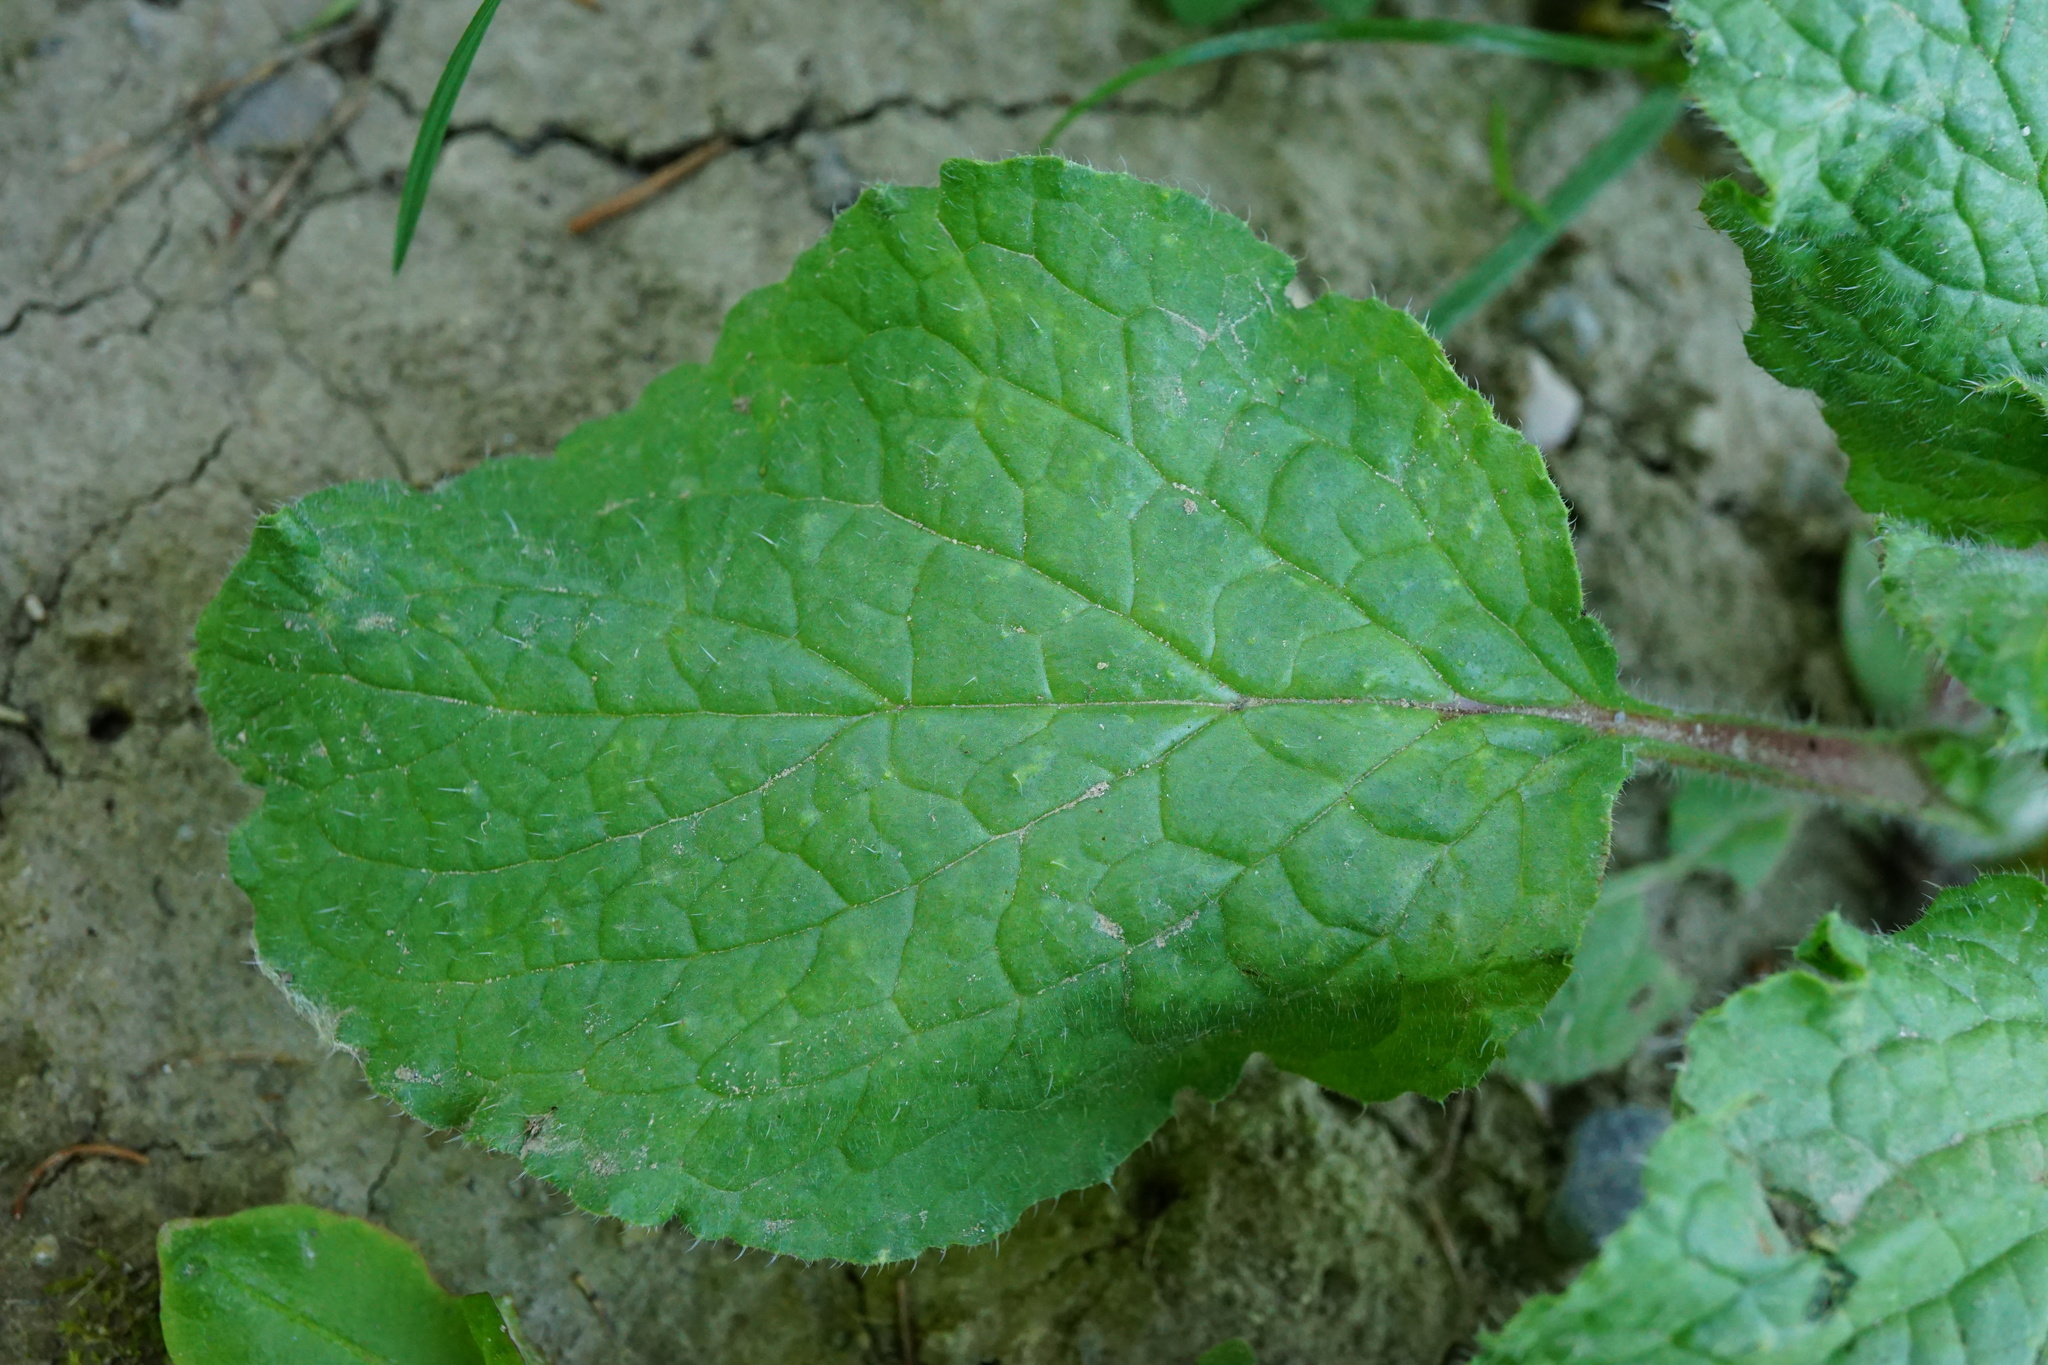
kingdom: Plantae
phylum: Tracheophyta
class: Magnoliopsida
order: Boraginales
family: Boraginaceae
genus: Borago
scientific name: Borago officinalis
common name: Borage
